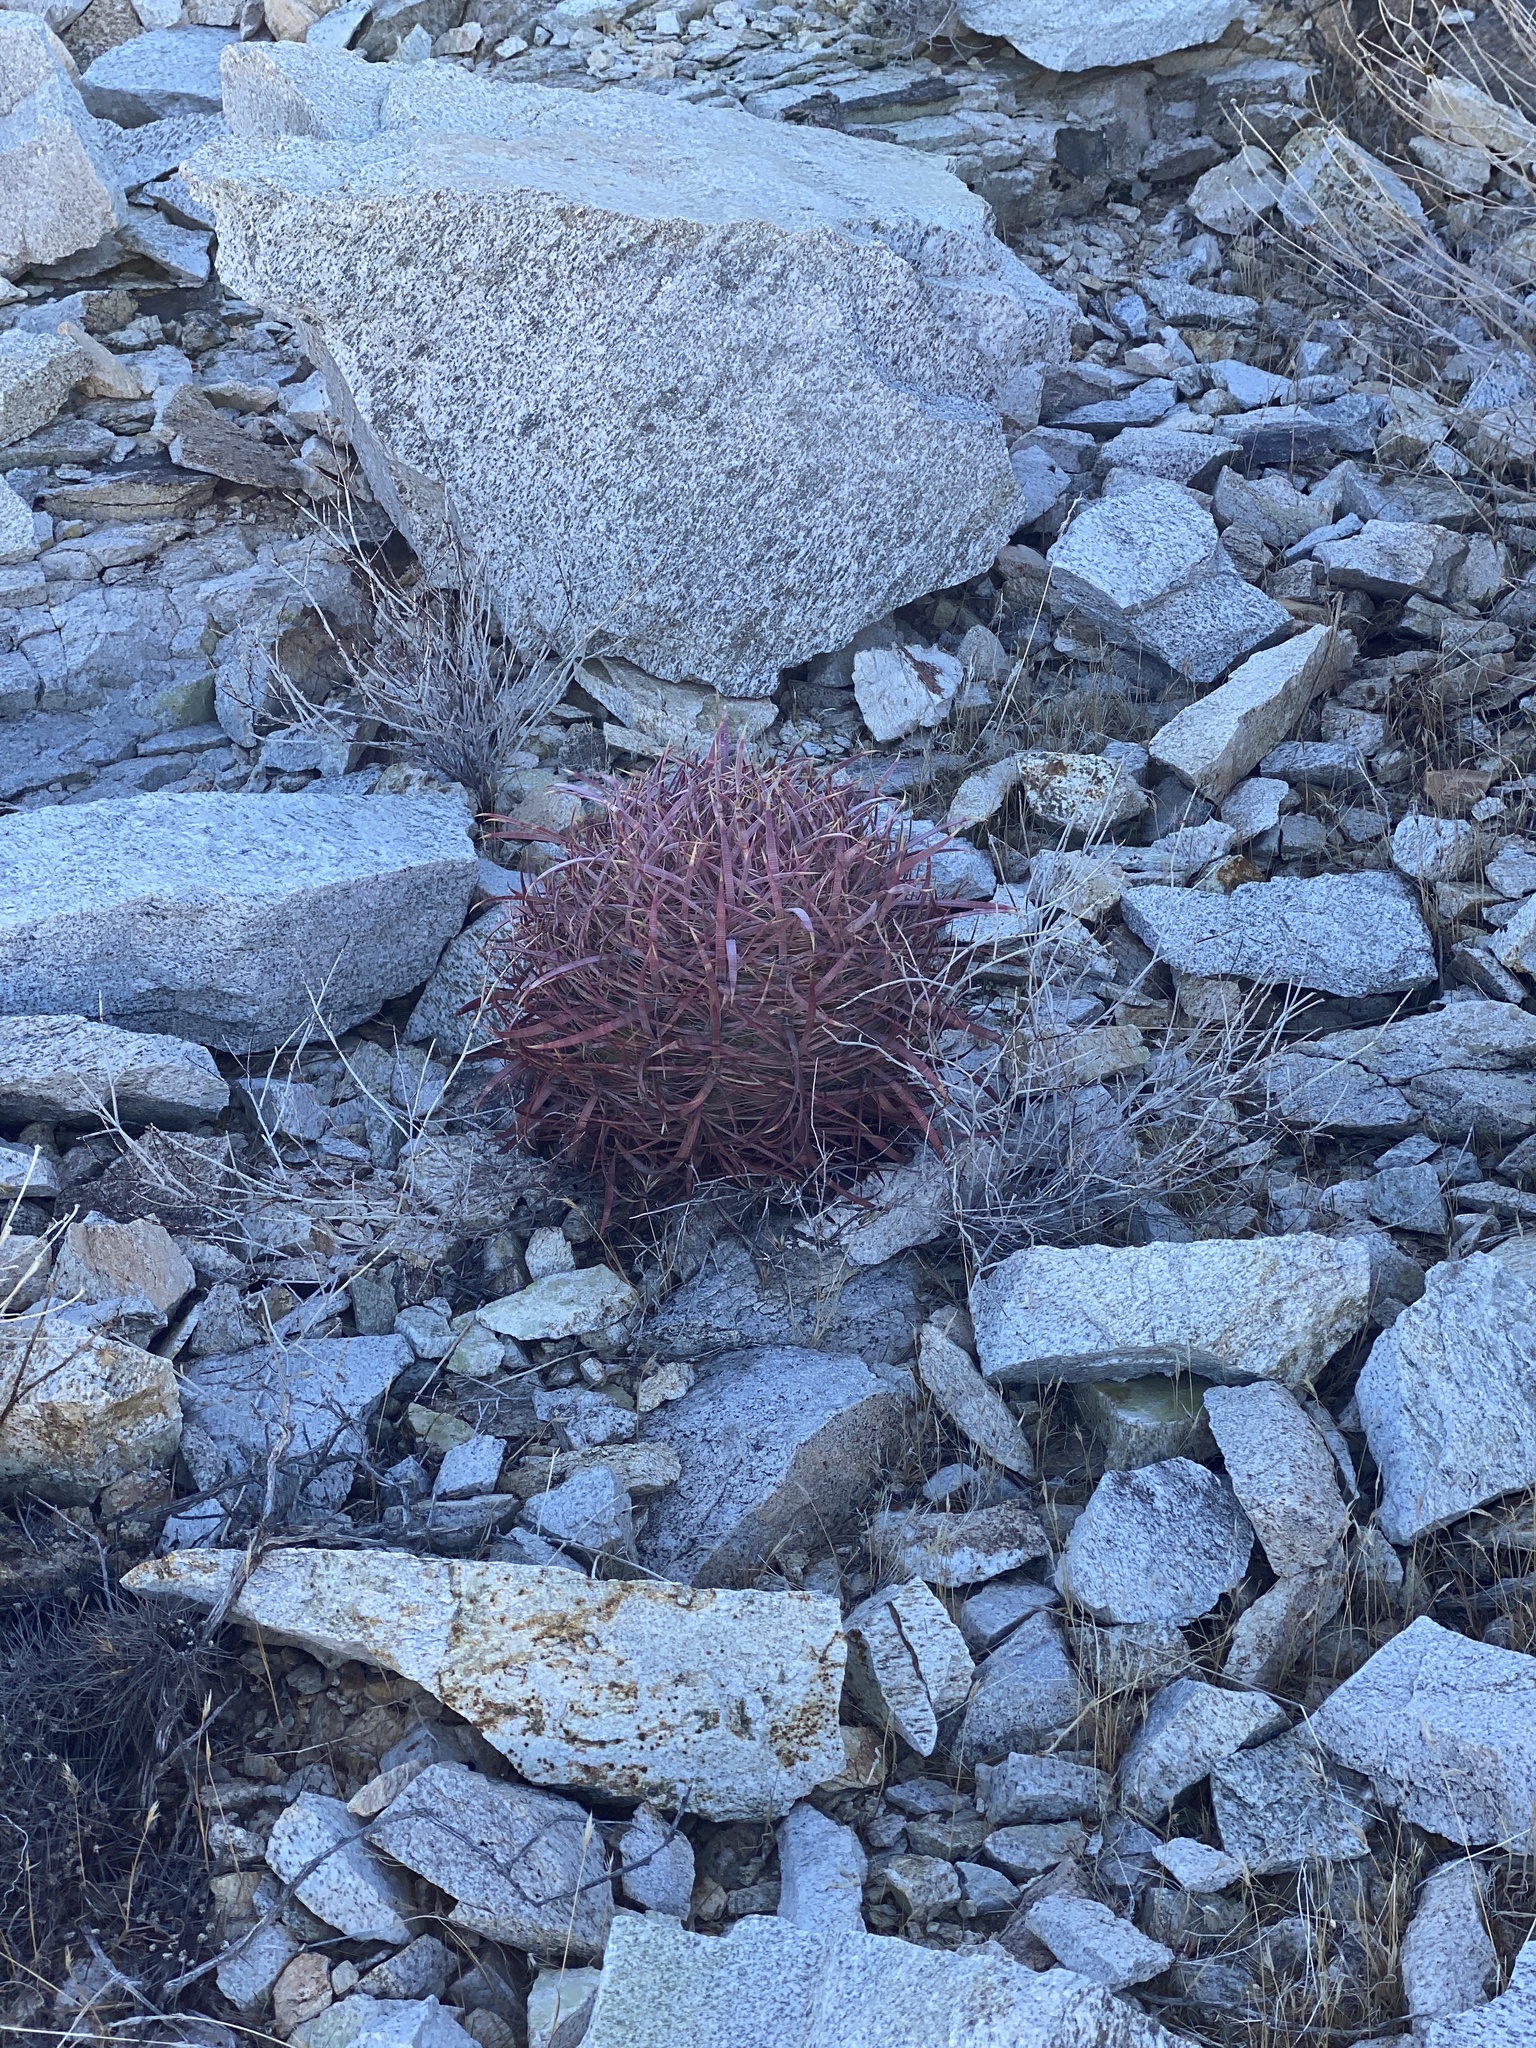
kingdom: Plantae
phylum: Tracheophyta
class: Magnoliopsida
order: Caryophyllales
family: Cactaceae
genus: Ferocactus
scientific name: Ferocactus cylindraceus
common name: California barrel cactus
